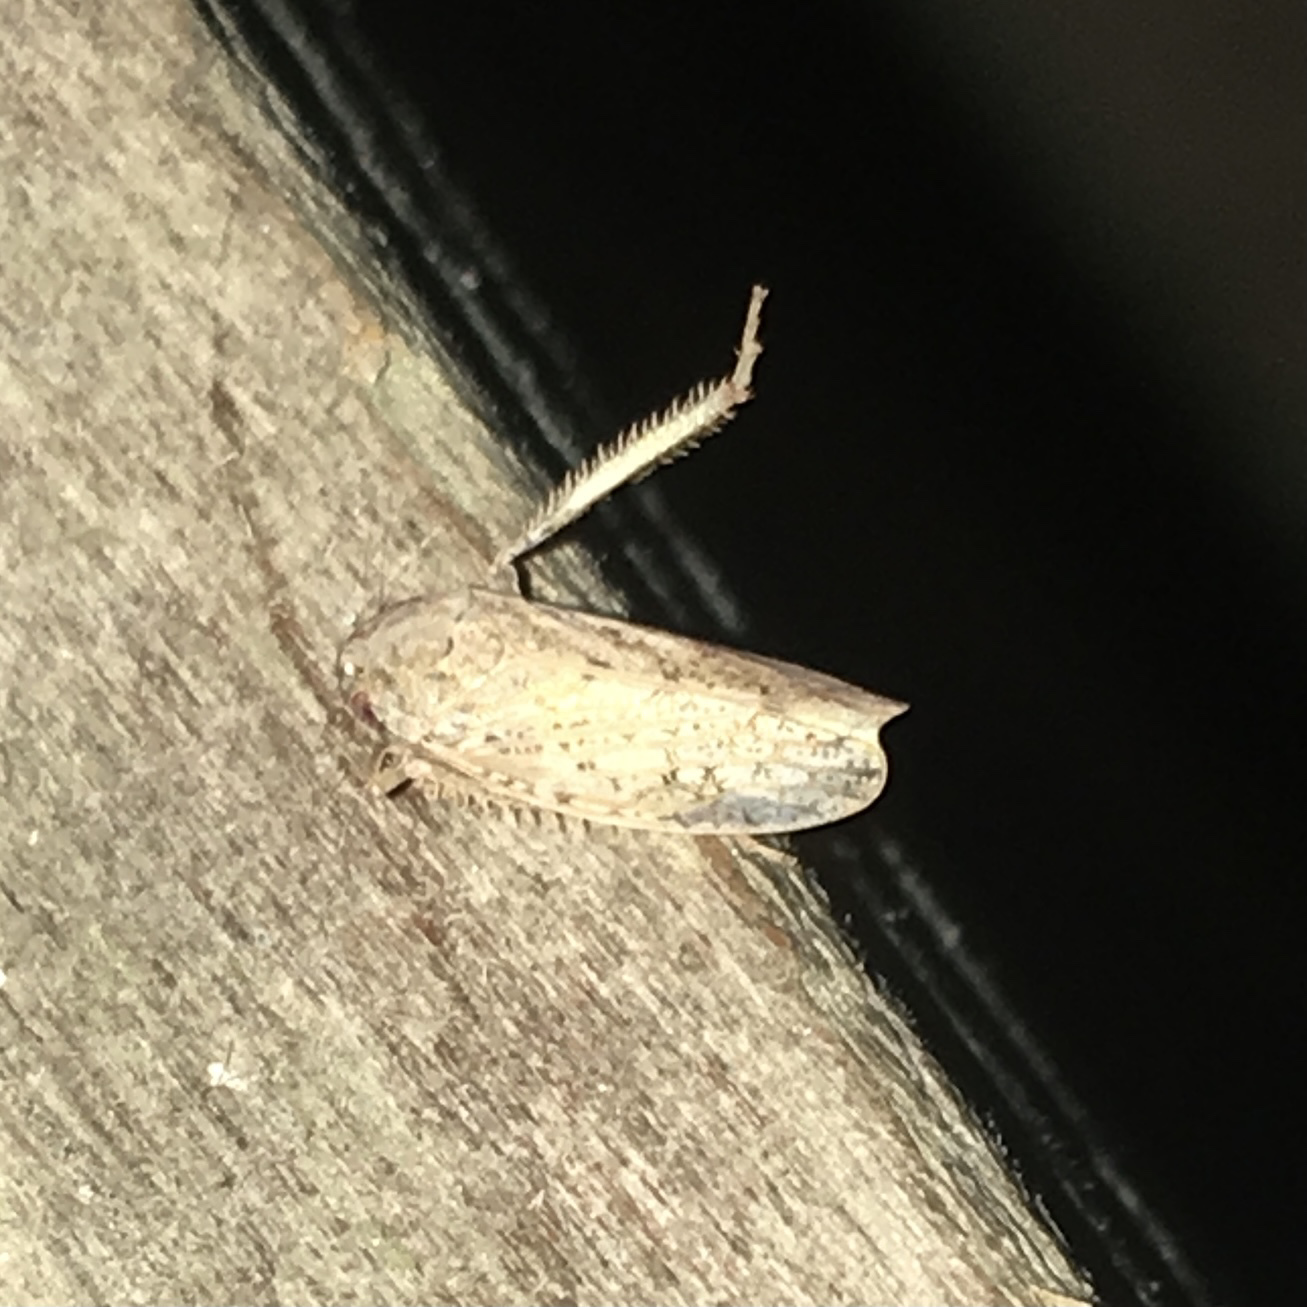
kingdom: Animalia
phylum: Arthropoda
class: Insecta
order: Hemiptera
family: Cicadellidae
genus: Curtara
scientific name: Curtara insularis
